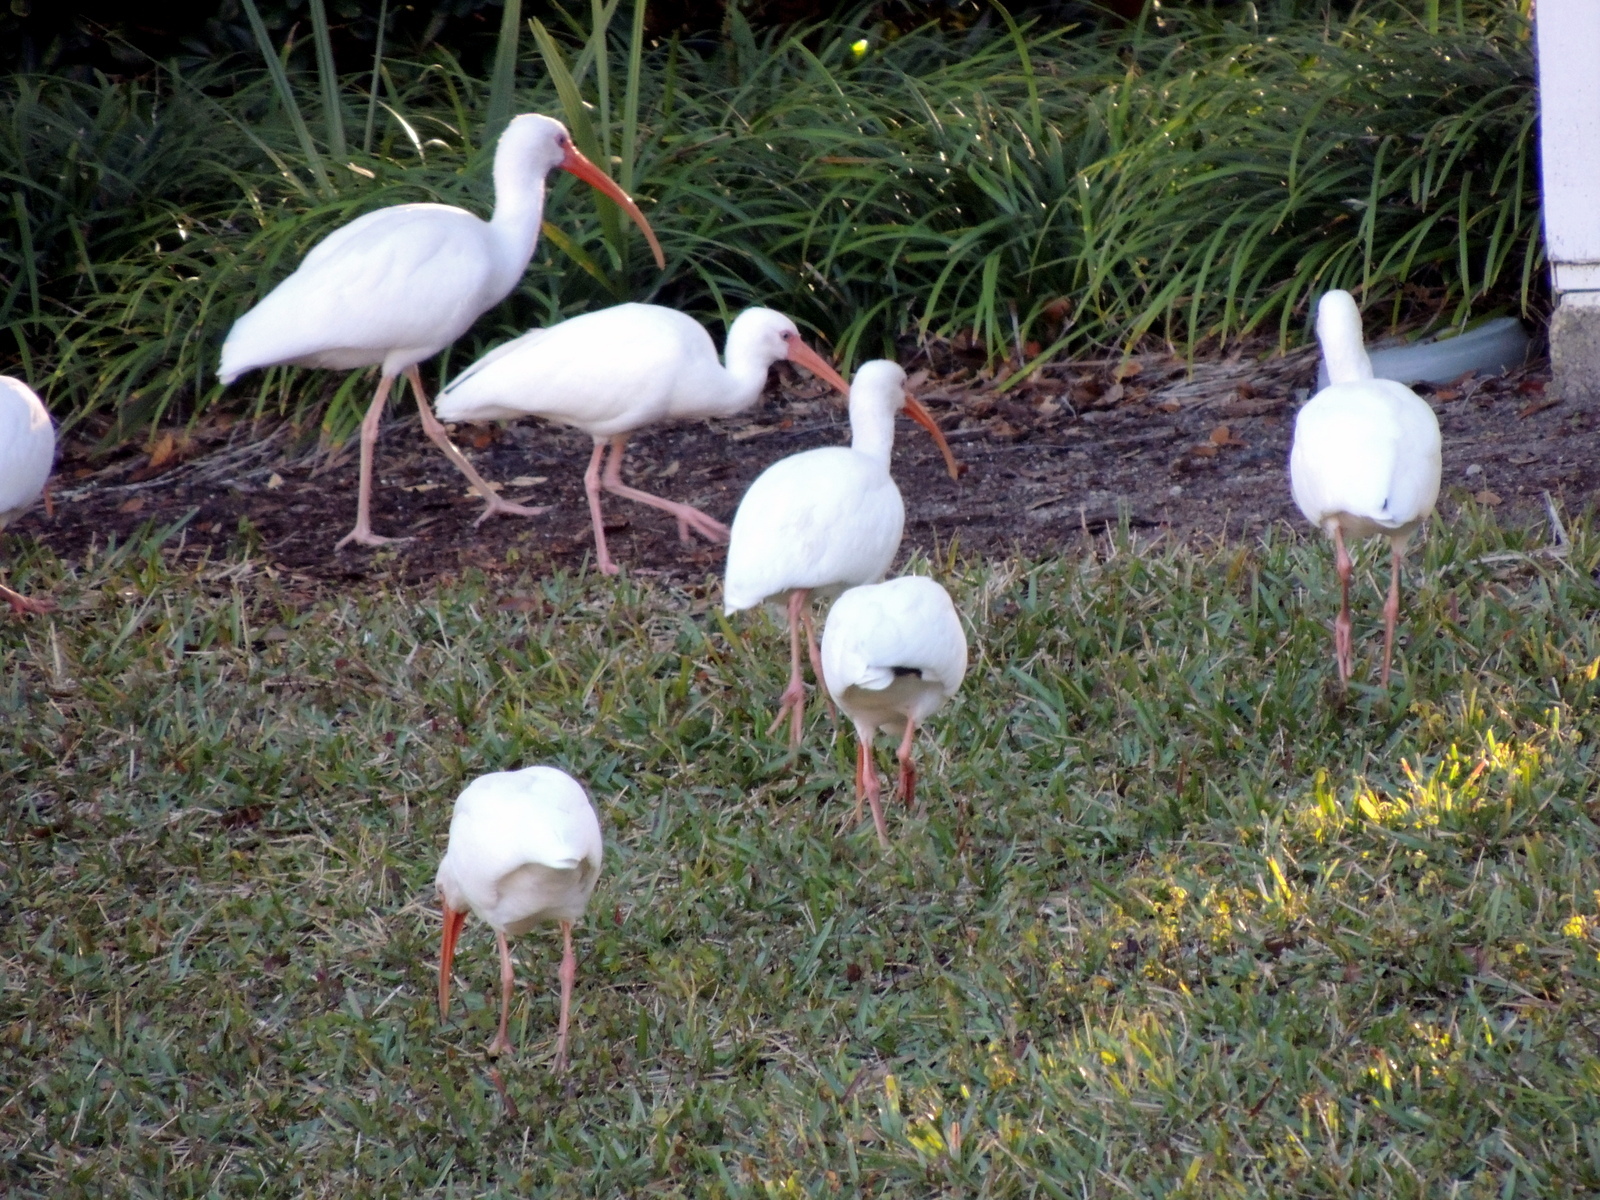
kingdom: Animalia
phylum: Chordata
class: Aves
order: Pelecaniformes
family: Threskiornithidae
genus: Eudocimus
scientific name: Eudocimus albus
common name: White ibis
